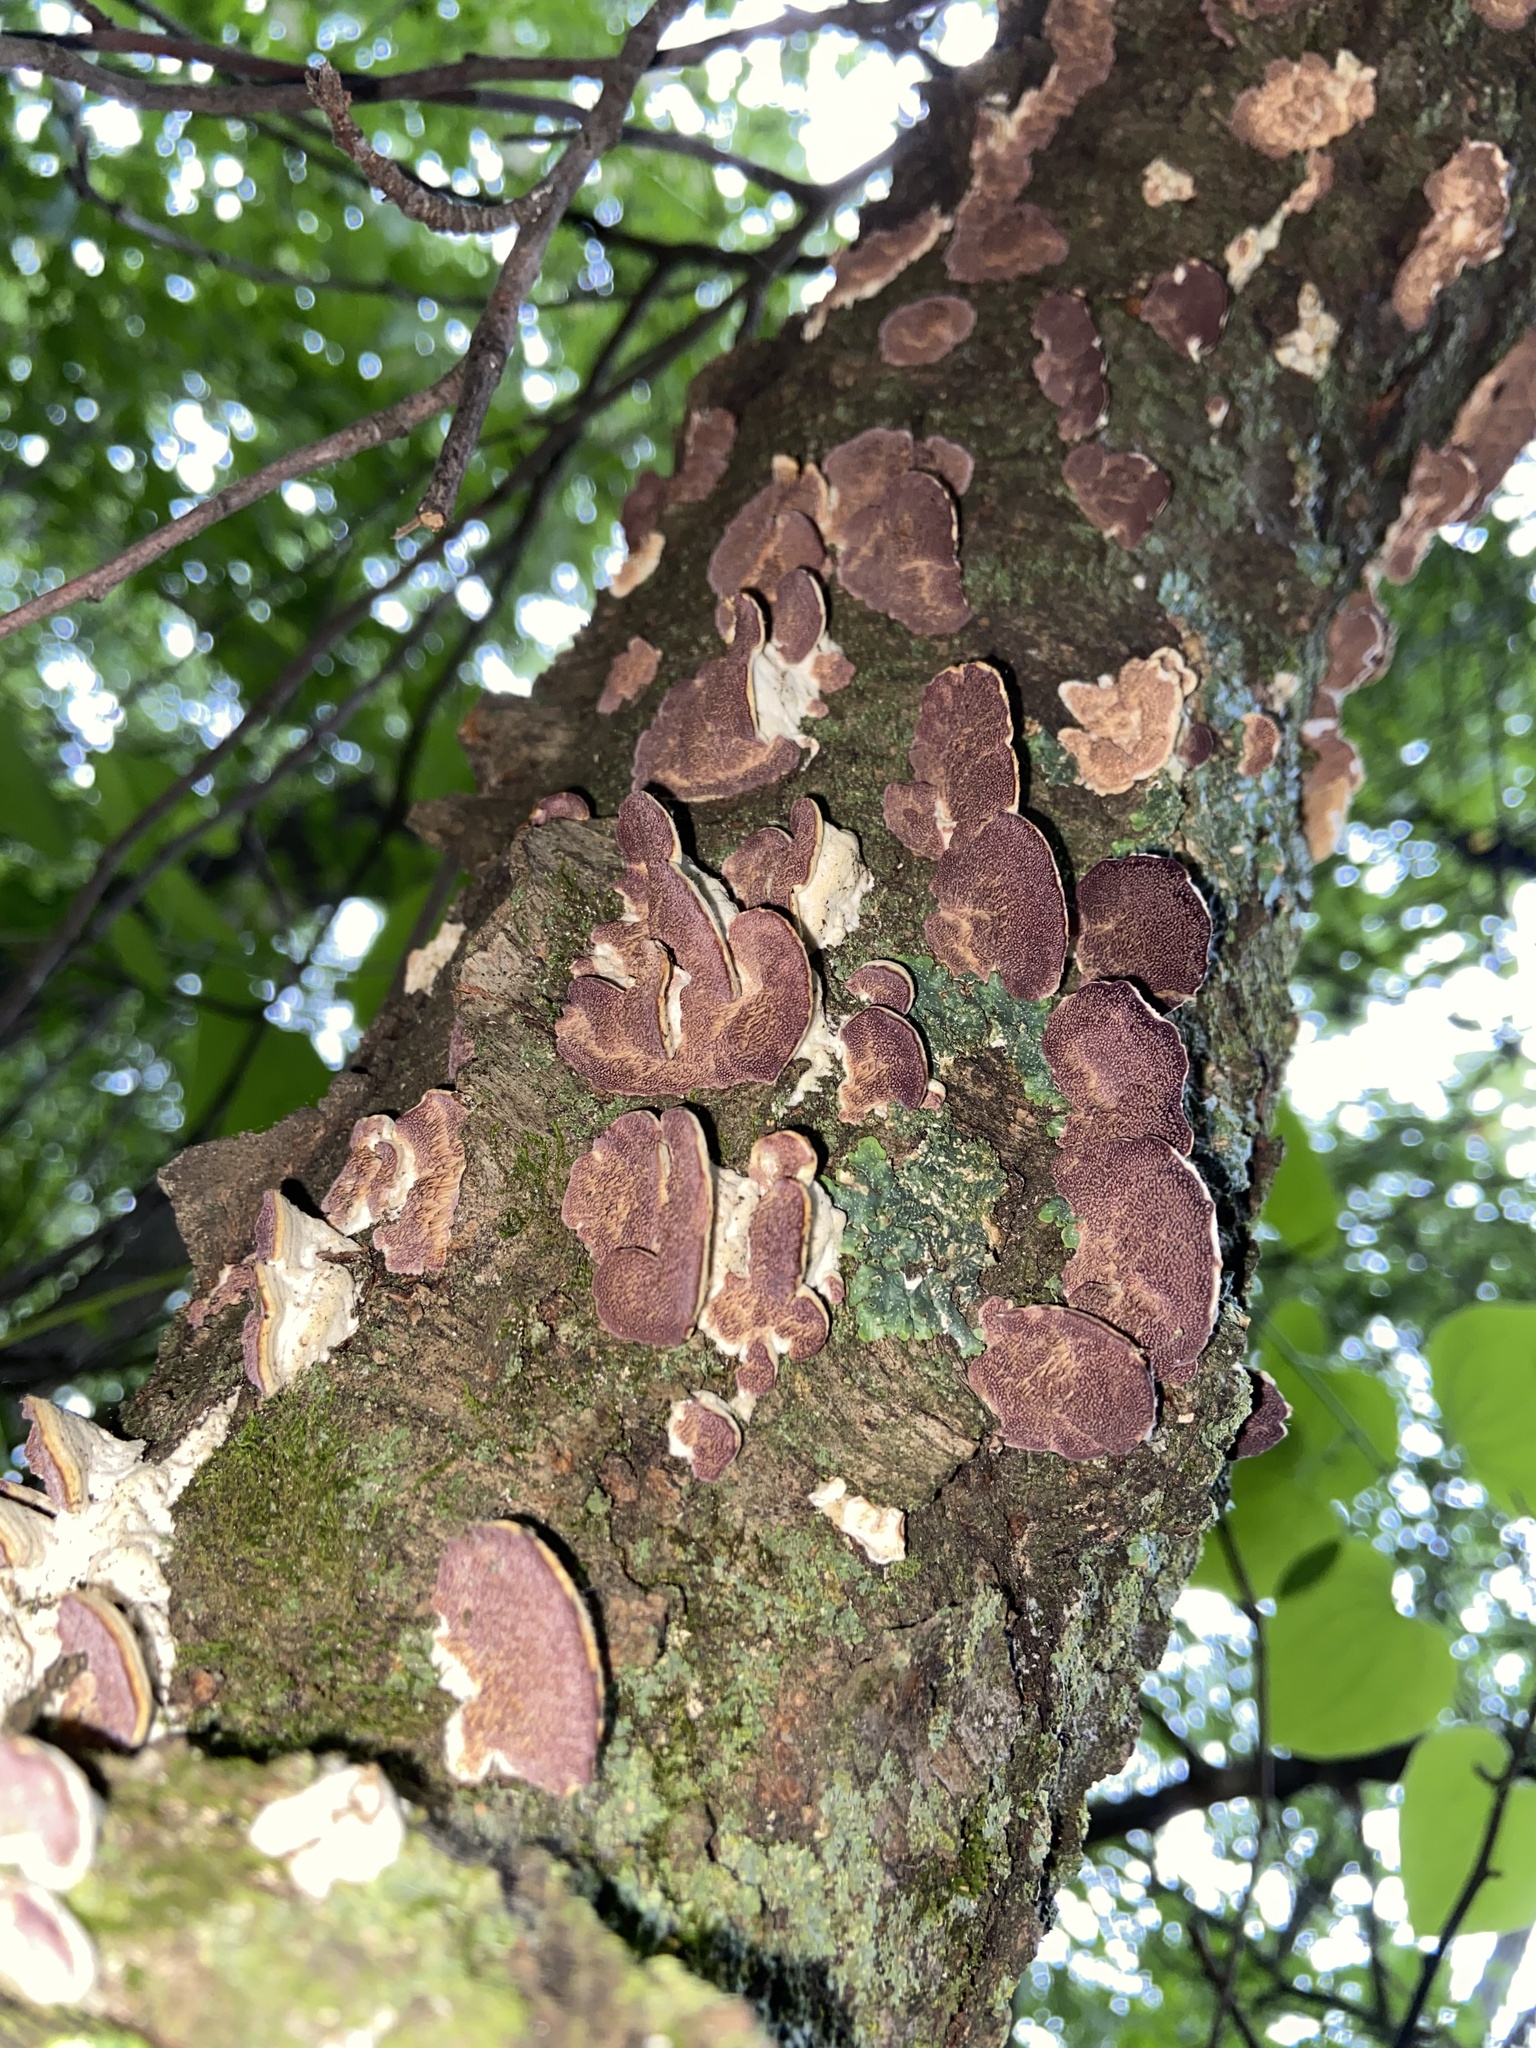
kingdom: Fungi
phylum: Basidiomycota
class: Agaricomycetes
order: Hymenochaetales
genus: Trichaptum
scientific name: Trichaptum biforme
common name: Violet-toothed polypore
